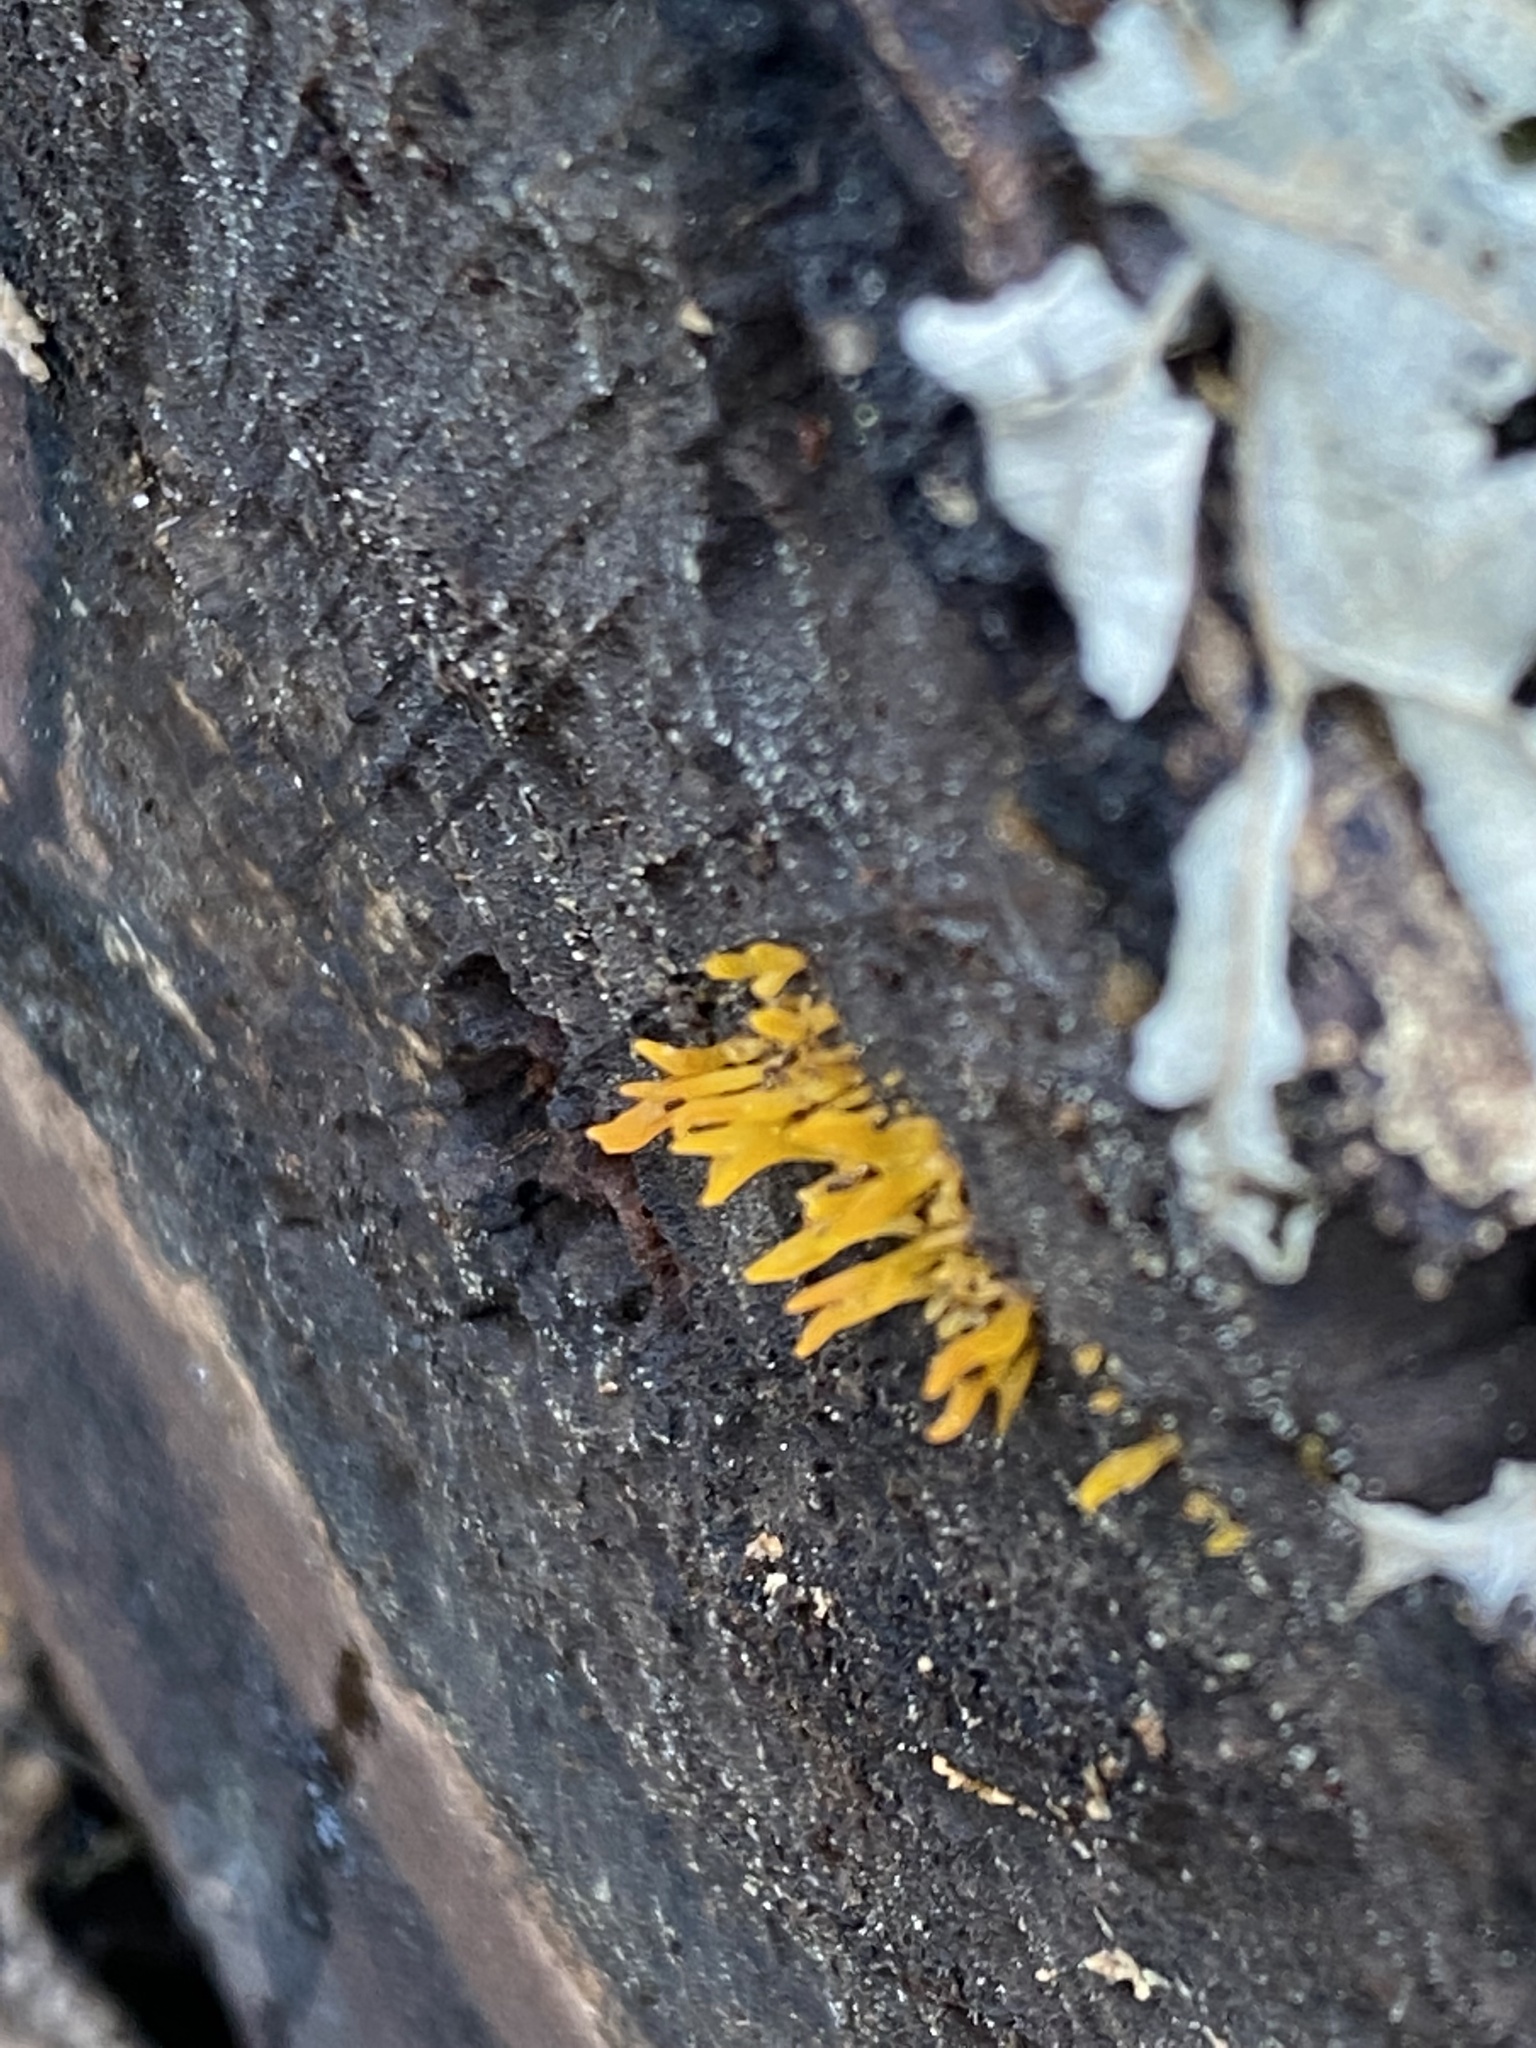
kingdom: Fungi
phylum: Basidiomycota
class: Dacrymycetes
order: Dacrymycetales
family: Dacrymycetaceae
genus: Calocera
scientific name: Calocera cornea
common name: Small stagshorn
